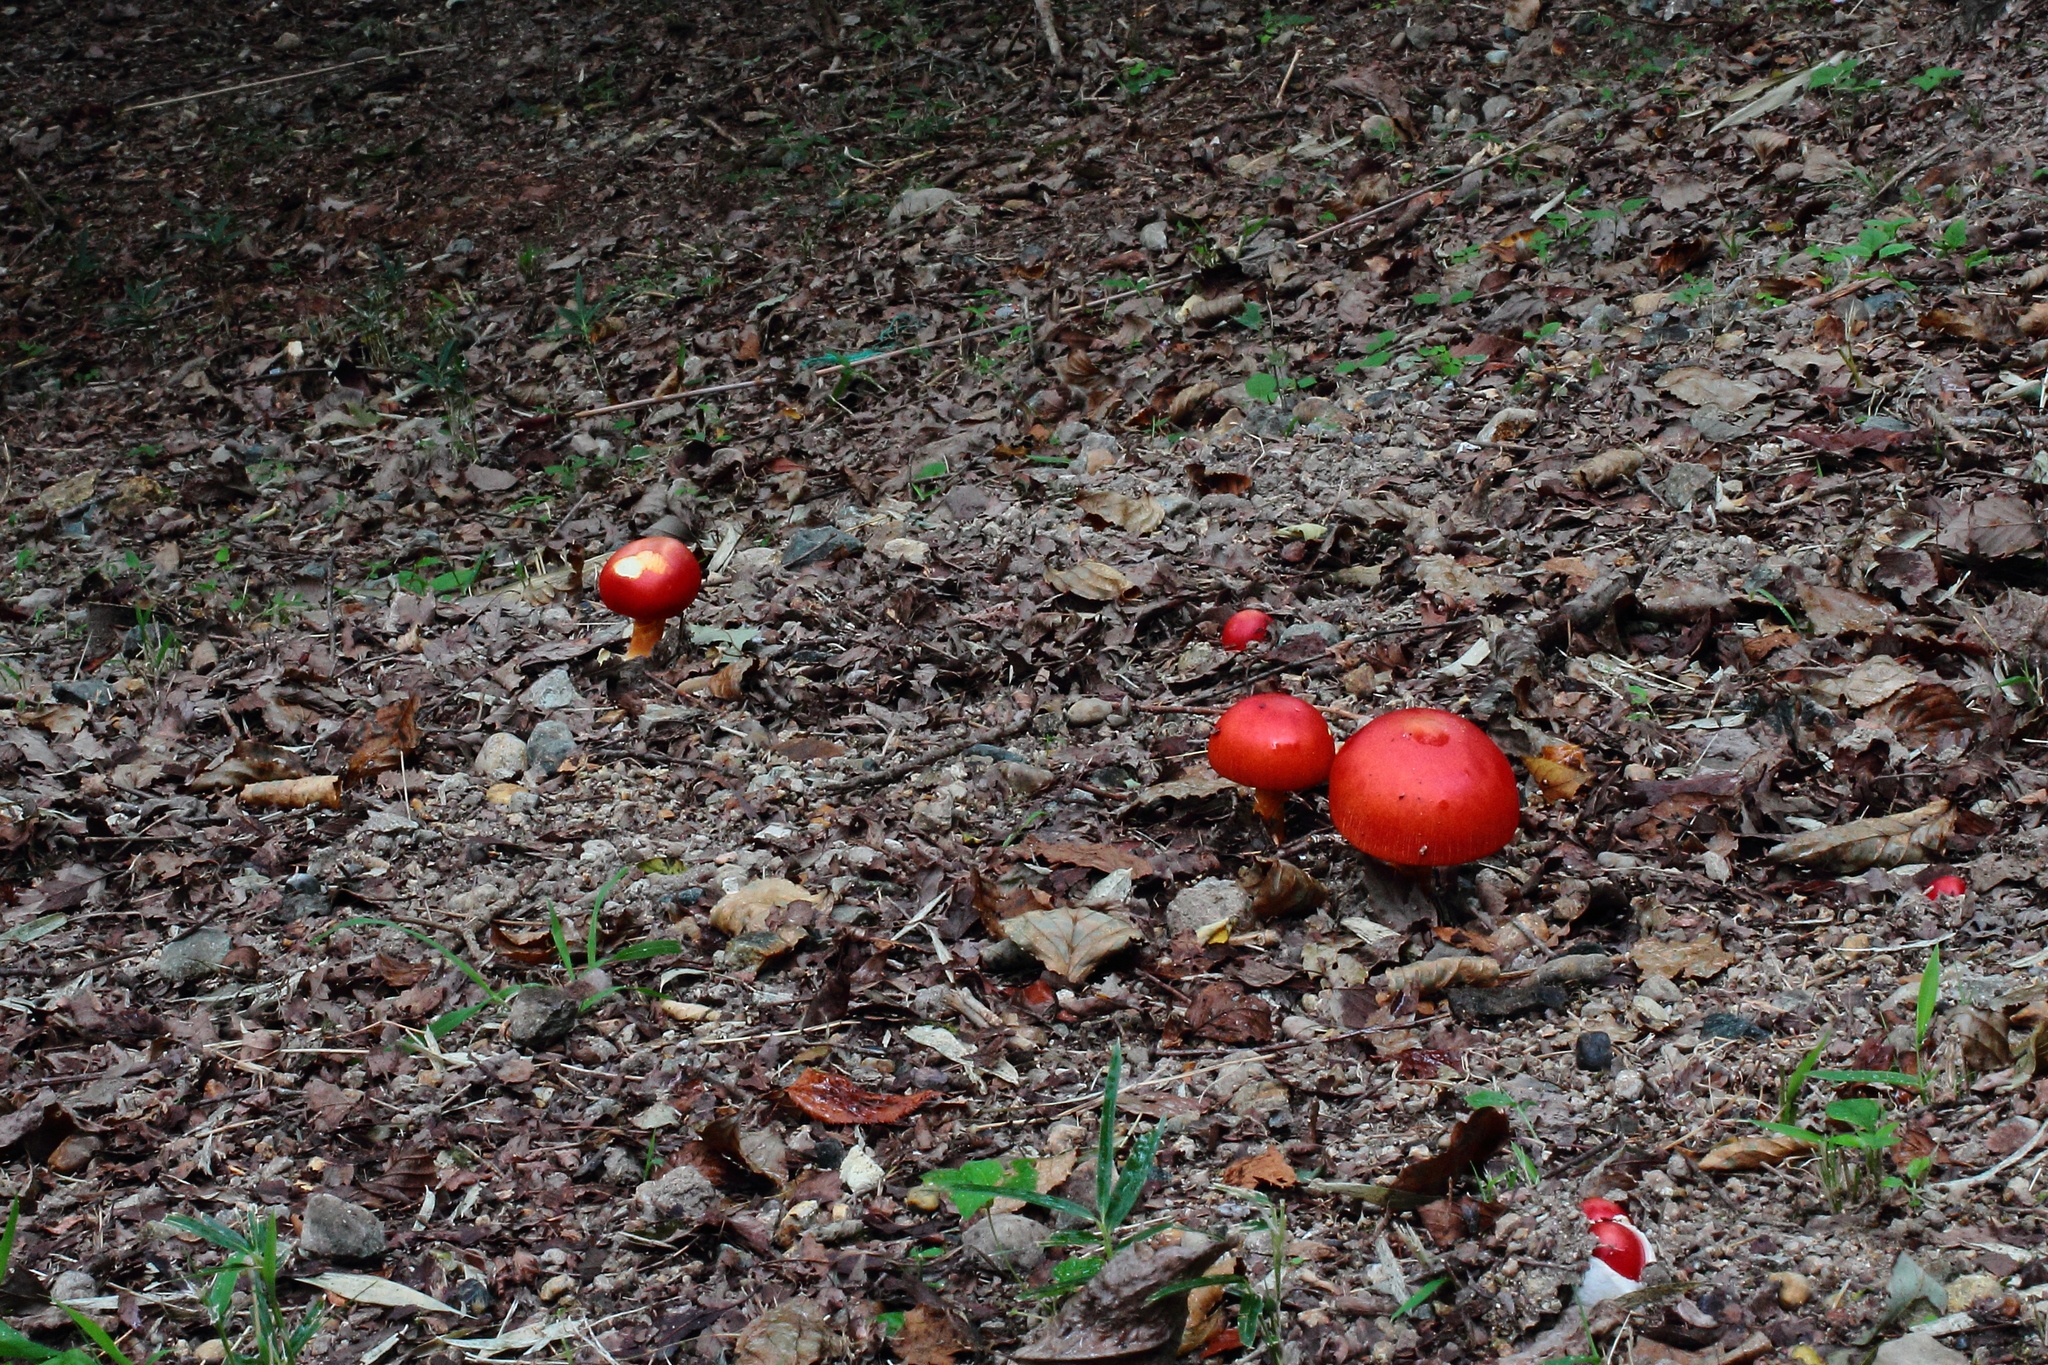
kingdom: Fungi
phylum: Basidiomycota
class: Agaricomycetes
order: Agaricales
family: Amanitaceae
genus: Amanita
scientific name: Amanita hemibapha
